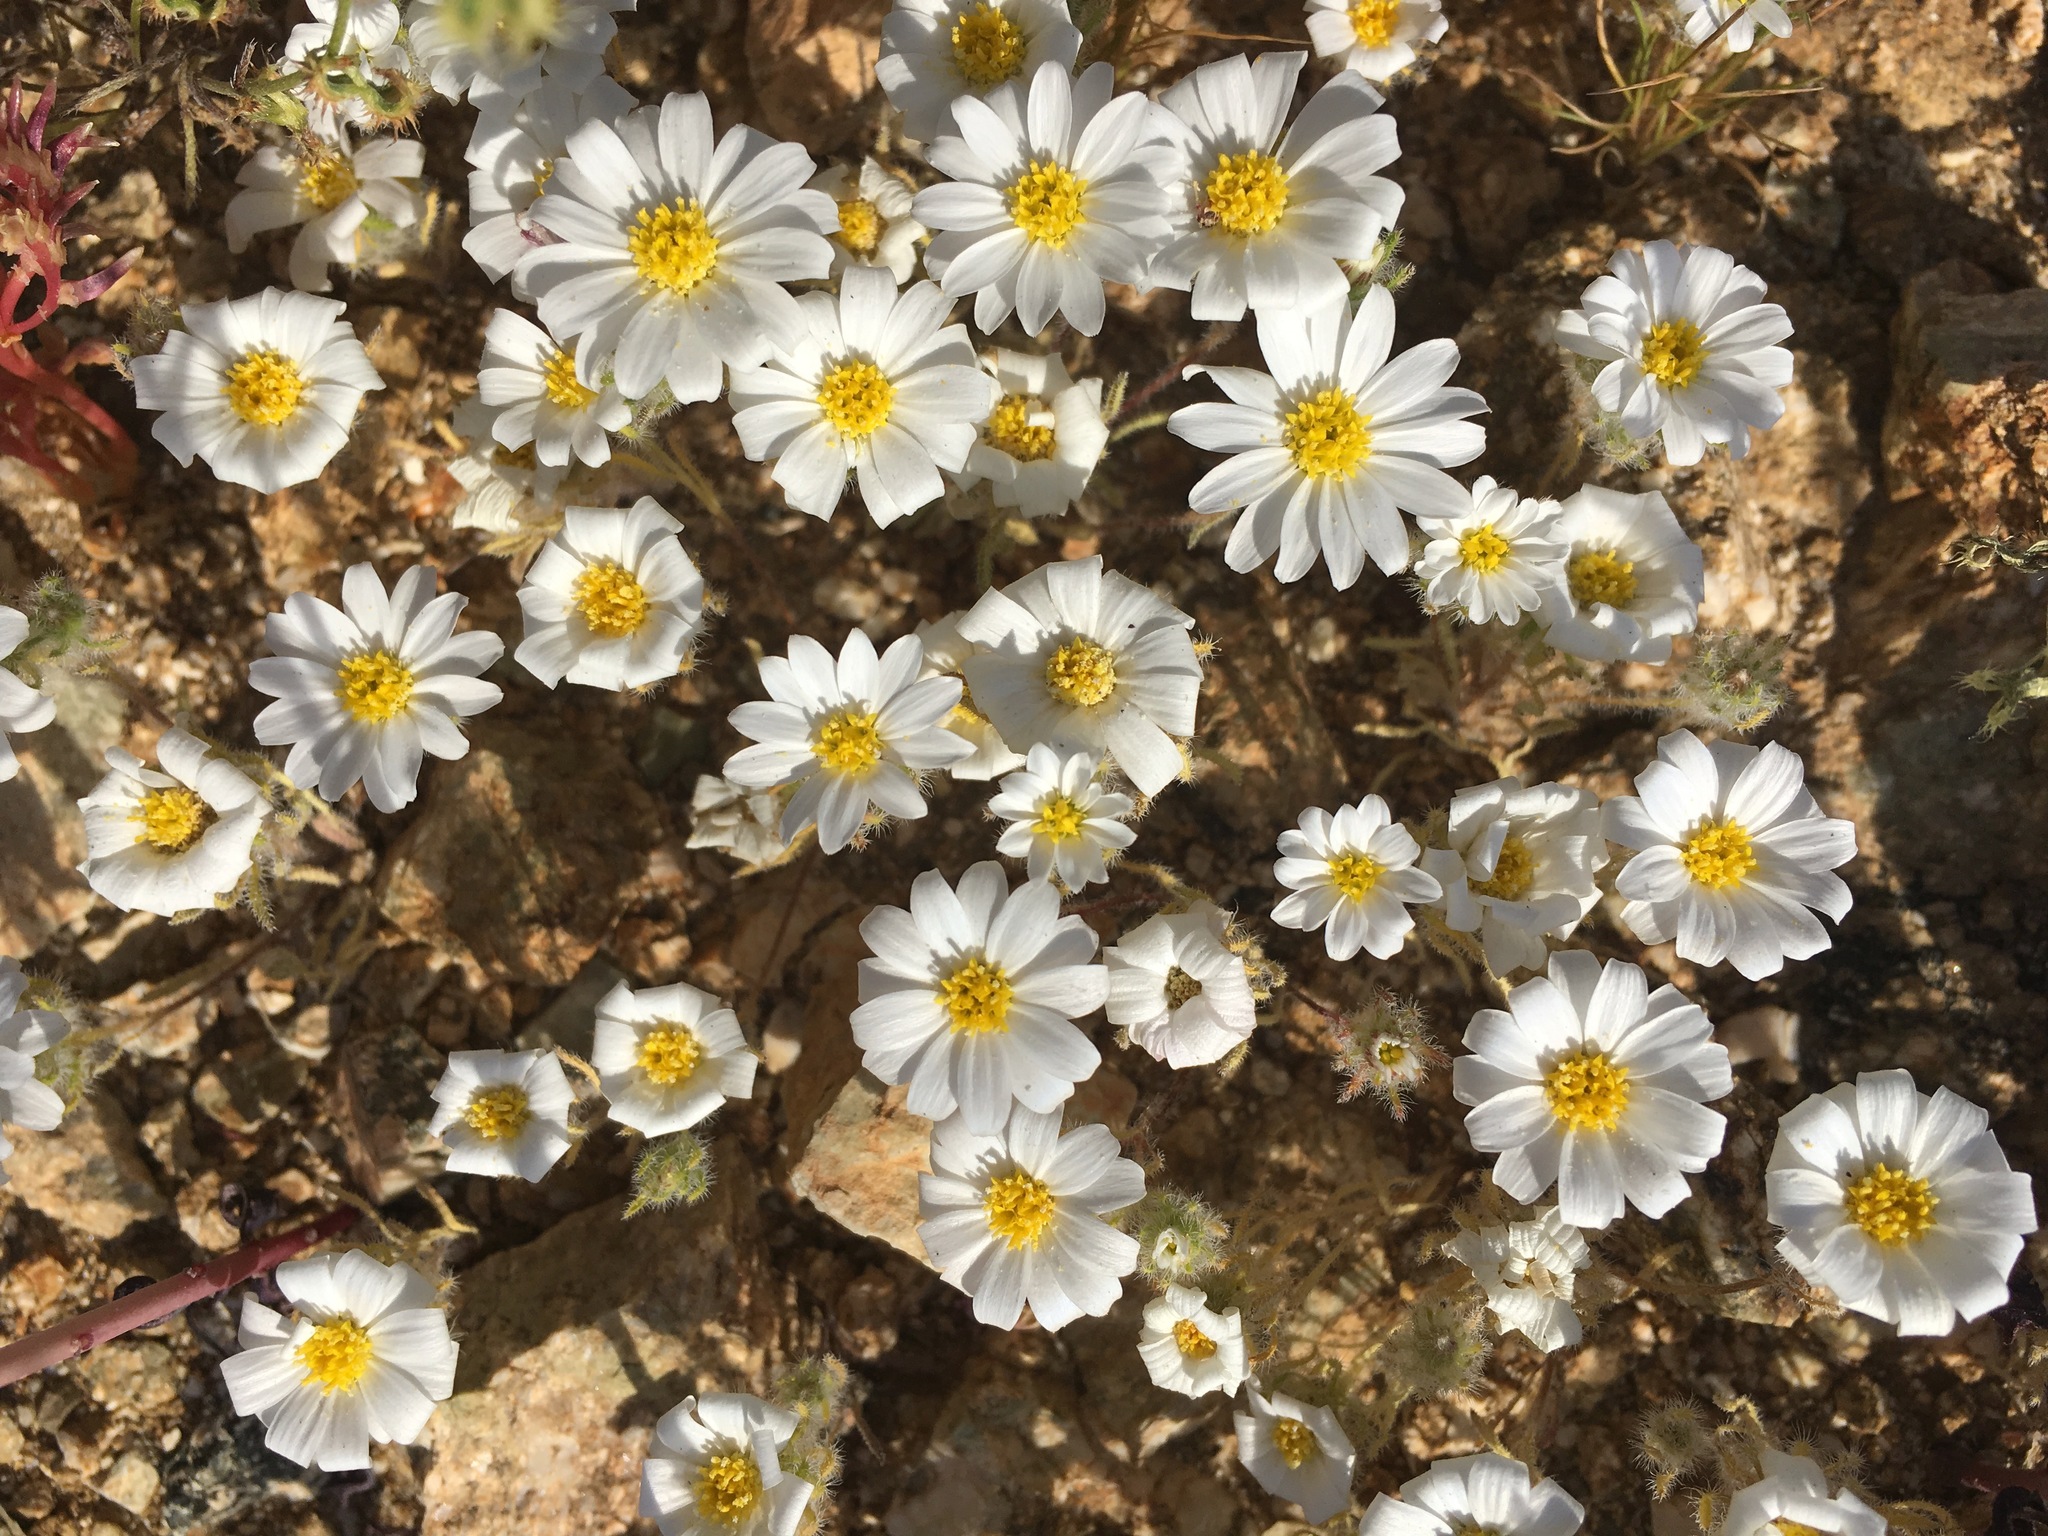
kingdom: Plantae
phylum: Tracheophyta
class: Magnoliopsida
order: Asterales
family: Asteraceae
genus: Monoptilon
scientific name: Monoptilon bellioides
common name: Bristly desertstar
